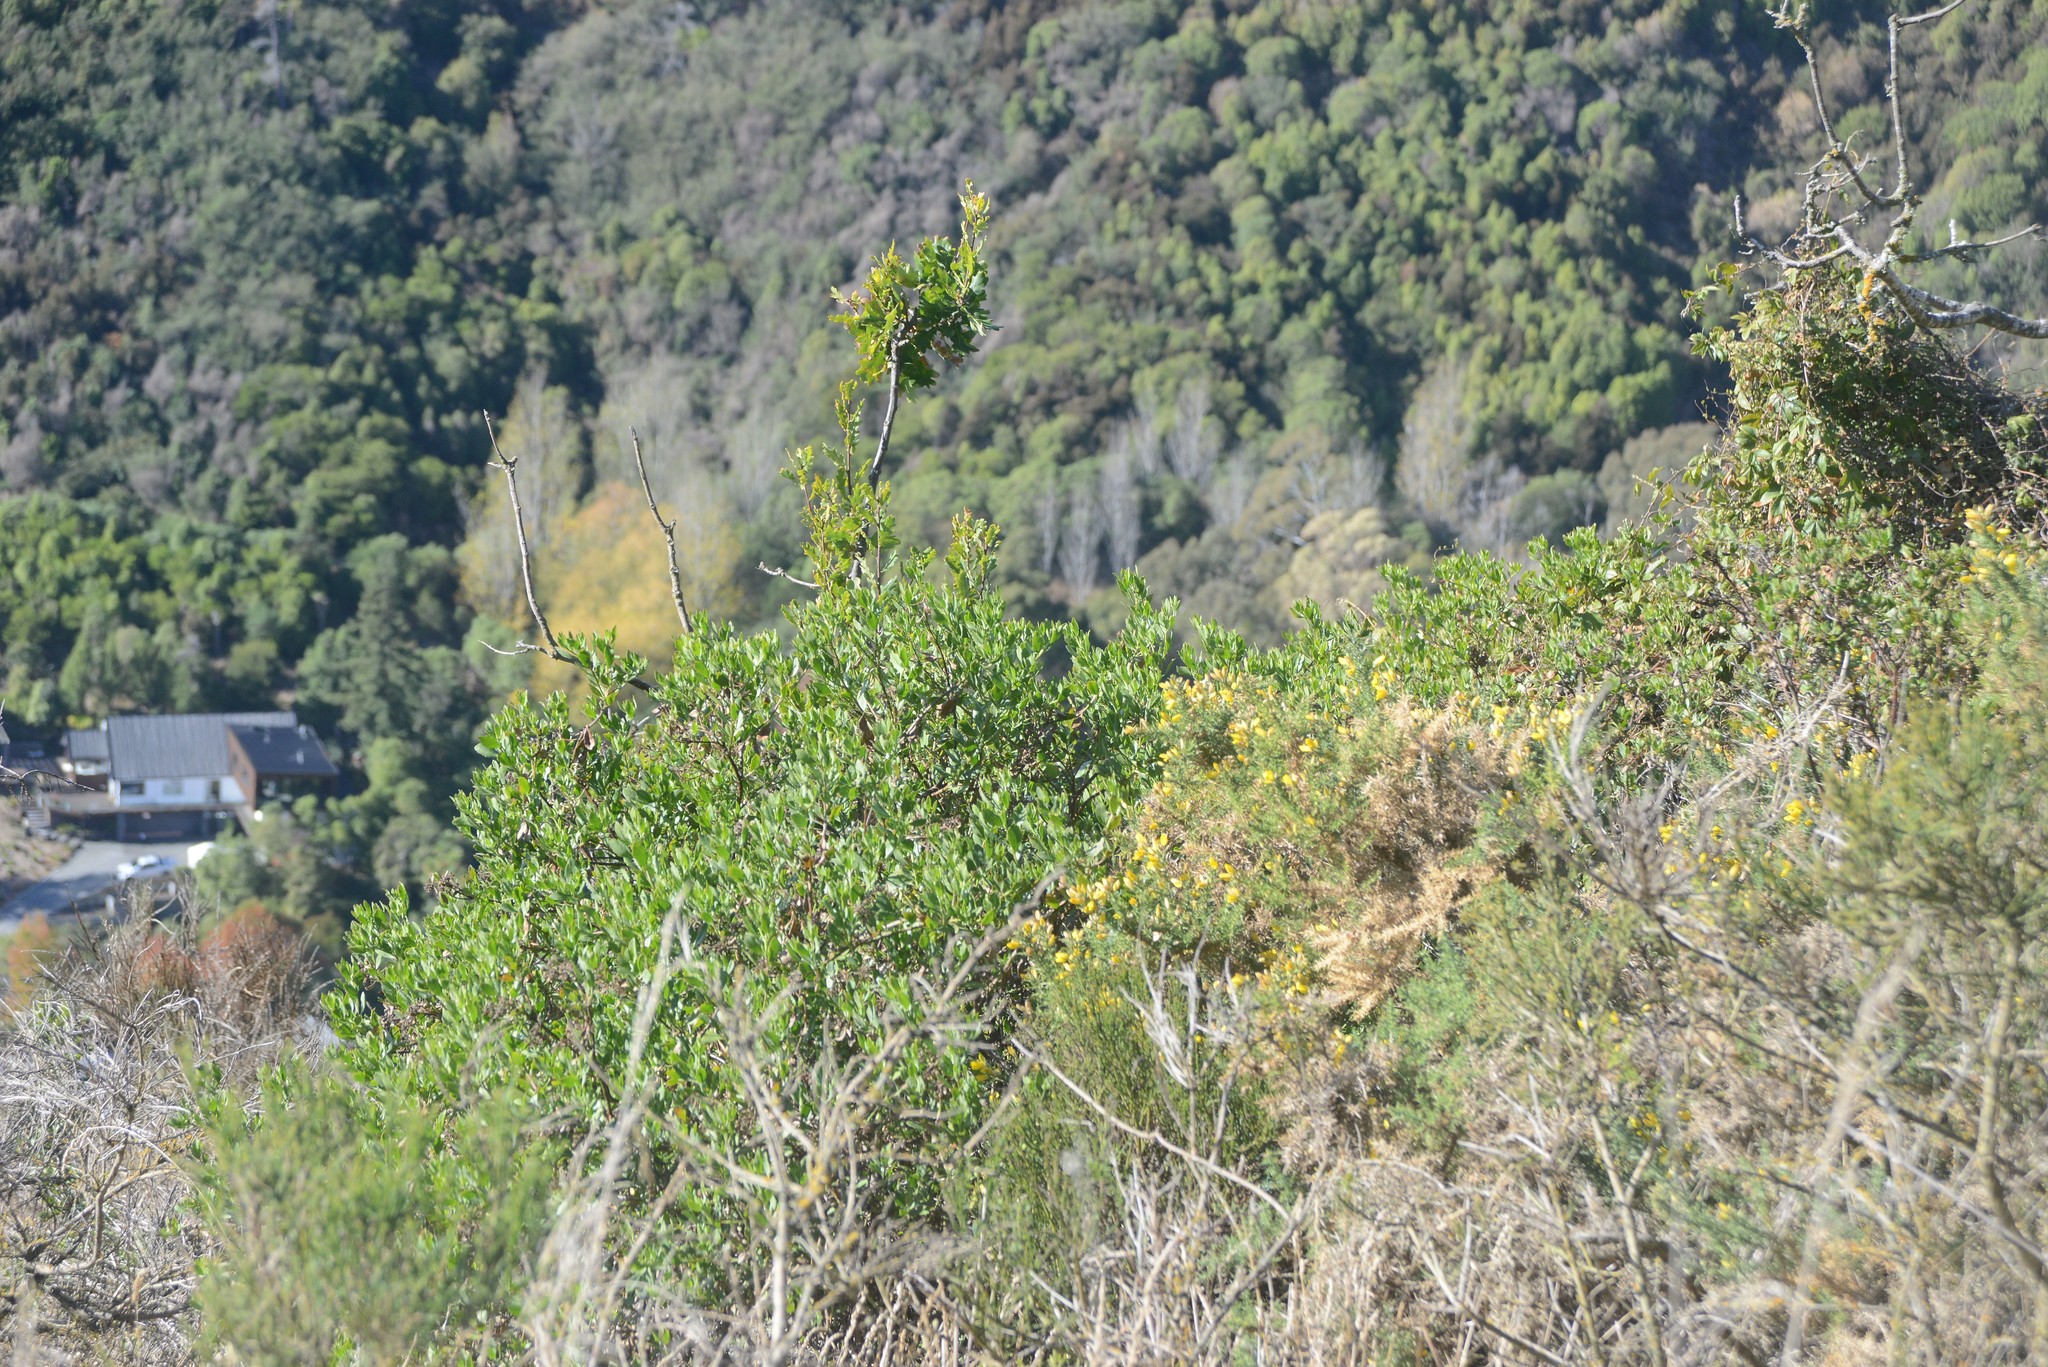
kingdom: Plantae
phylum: Tracheophyta
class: Magnoliopsida
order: Asterales
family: Asteraceae
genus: Osteospermum
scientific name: Osteospermum moniliferum
